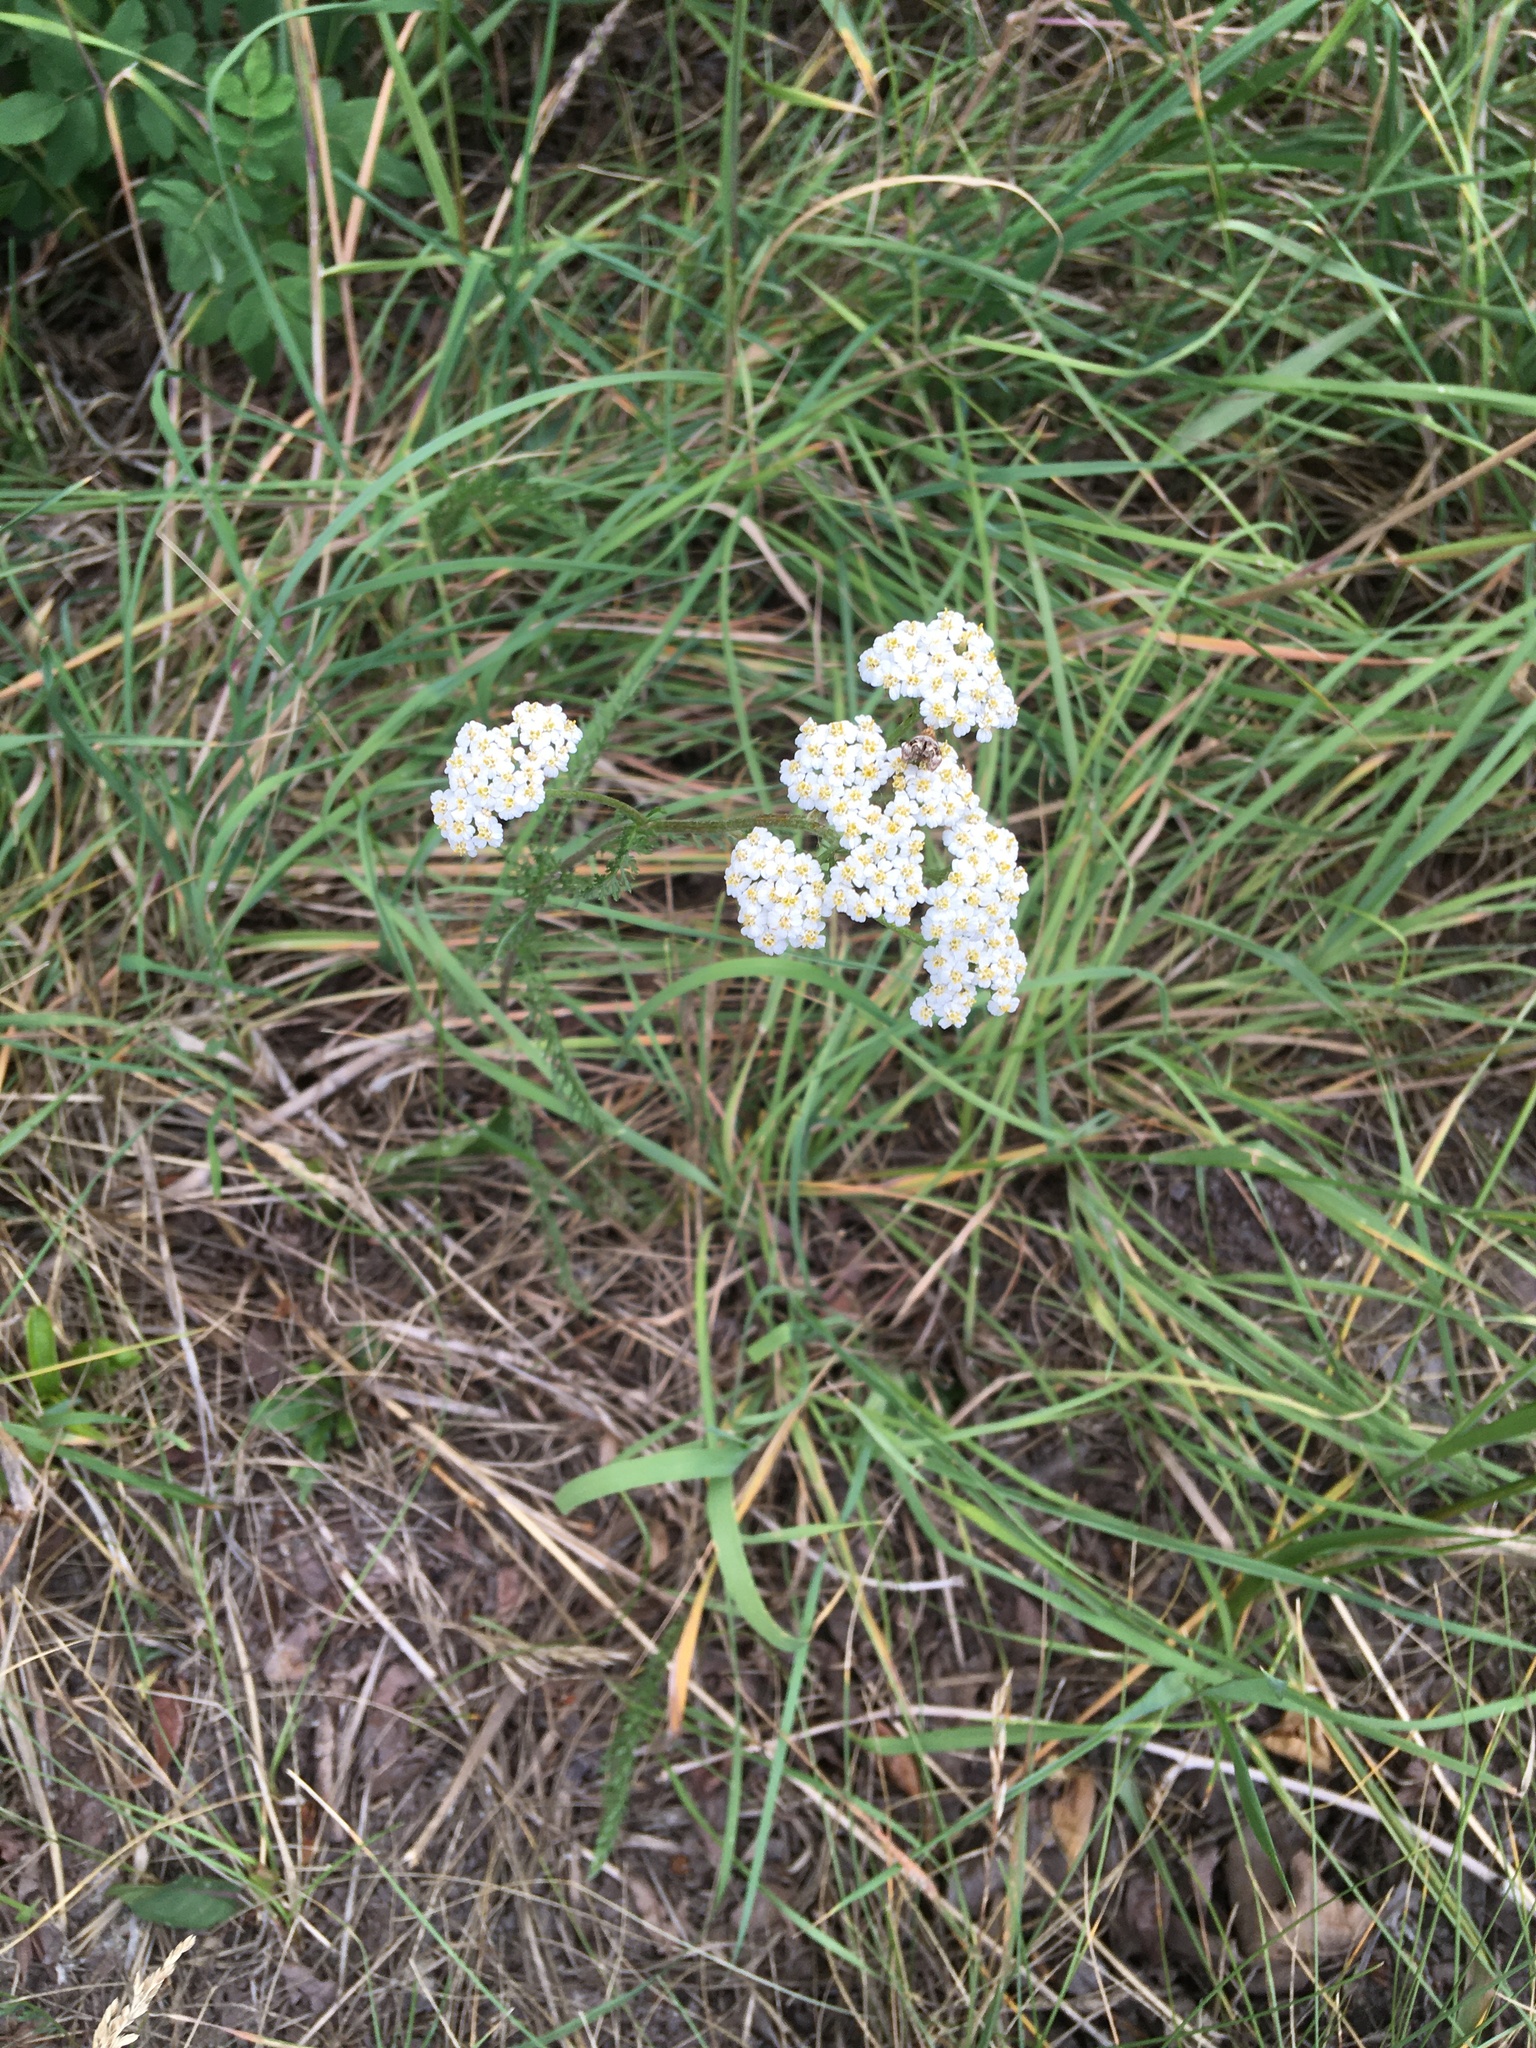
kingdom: Plantae
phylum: Tracheophyta
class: Magnoliopsida
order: Asterales
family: Asteraceae
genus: Achillea
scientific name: Achillea millefolium
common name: Yarrow
